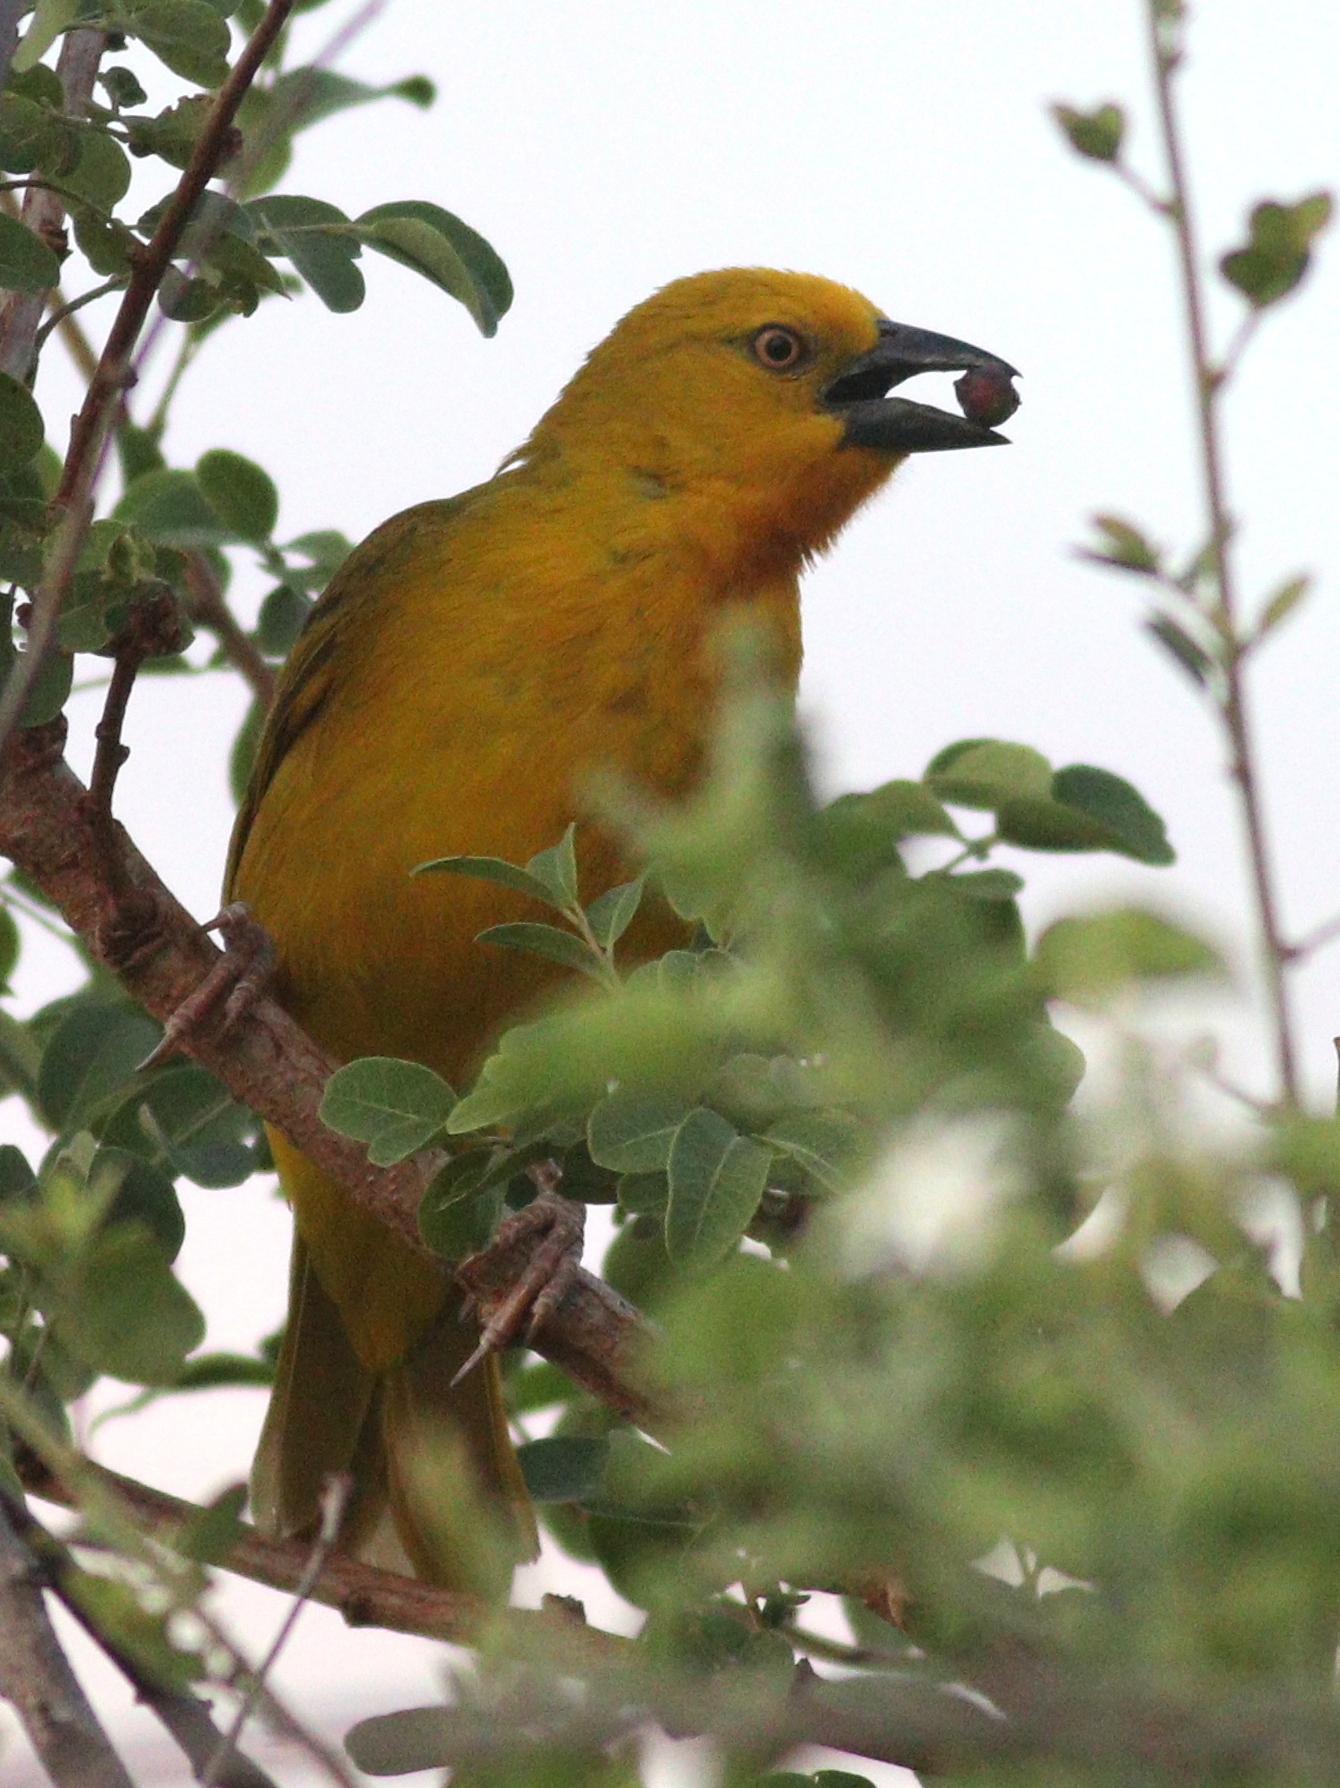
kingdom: Animalia
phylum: Chordata
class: Aves
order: Passeriformes
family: Ploceidae
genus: Ploceus
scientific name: Ploceus xanthops
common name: Holub's golden weaver
